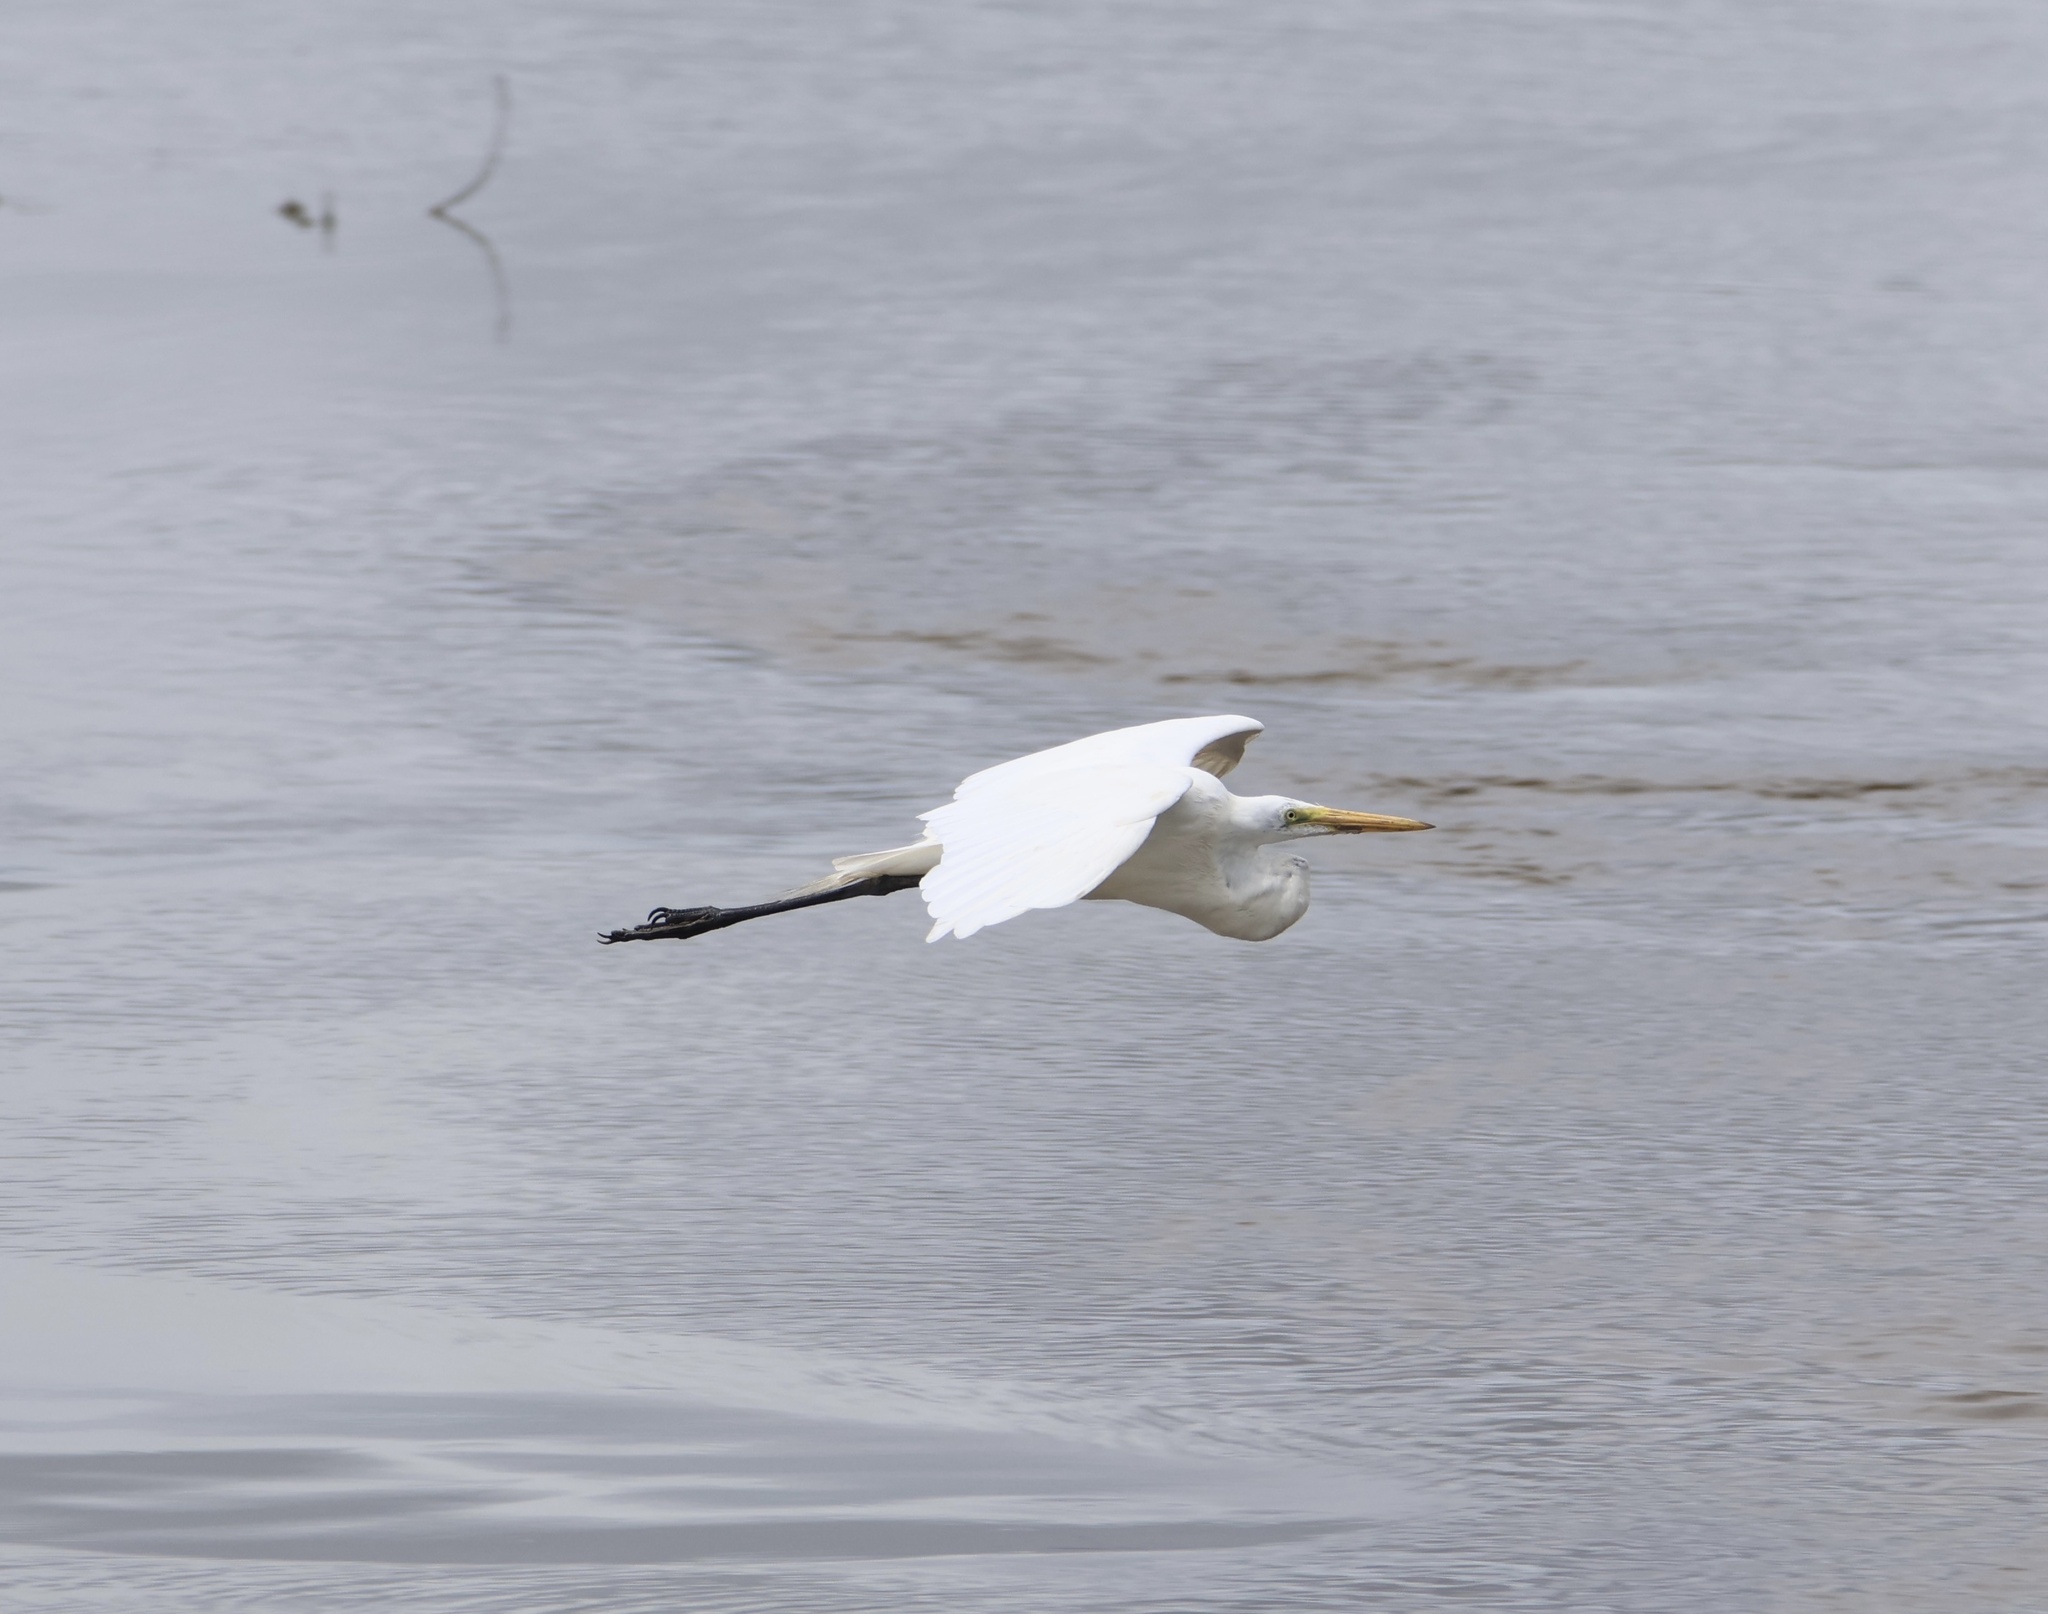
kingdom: Animalia
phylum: Chordata
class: Aves
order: Pelecaniformes
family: Ardeidae
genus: Ardea
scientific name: Ardea alba
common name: Great egret
